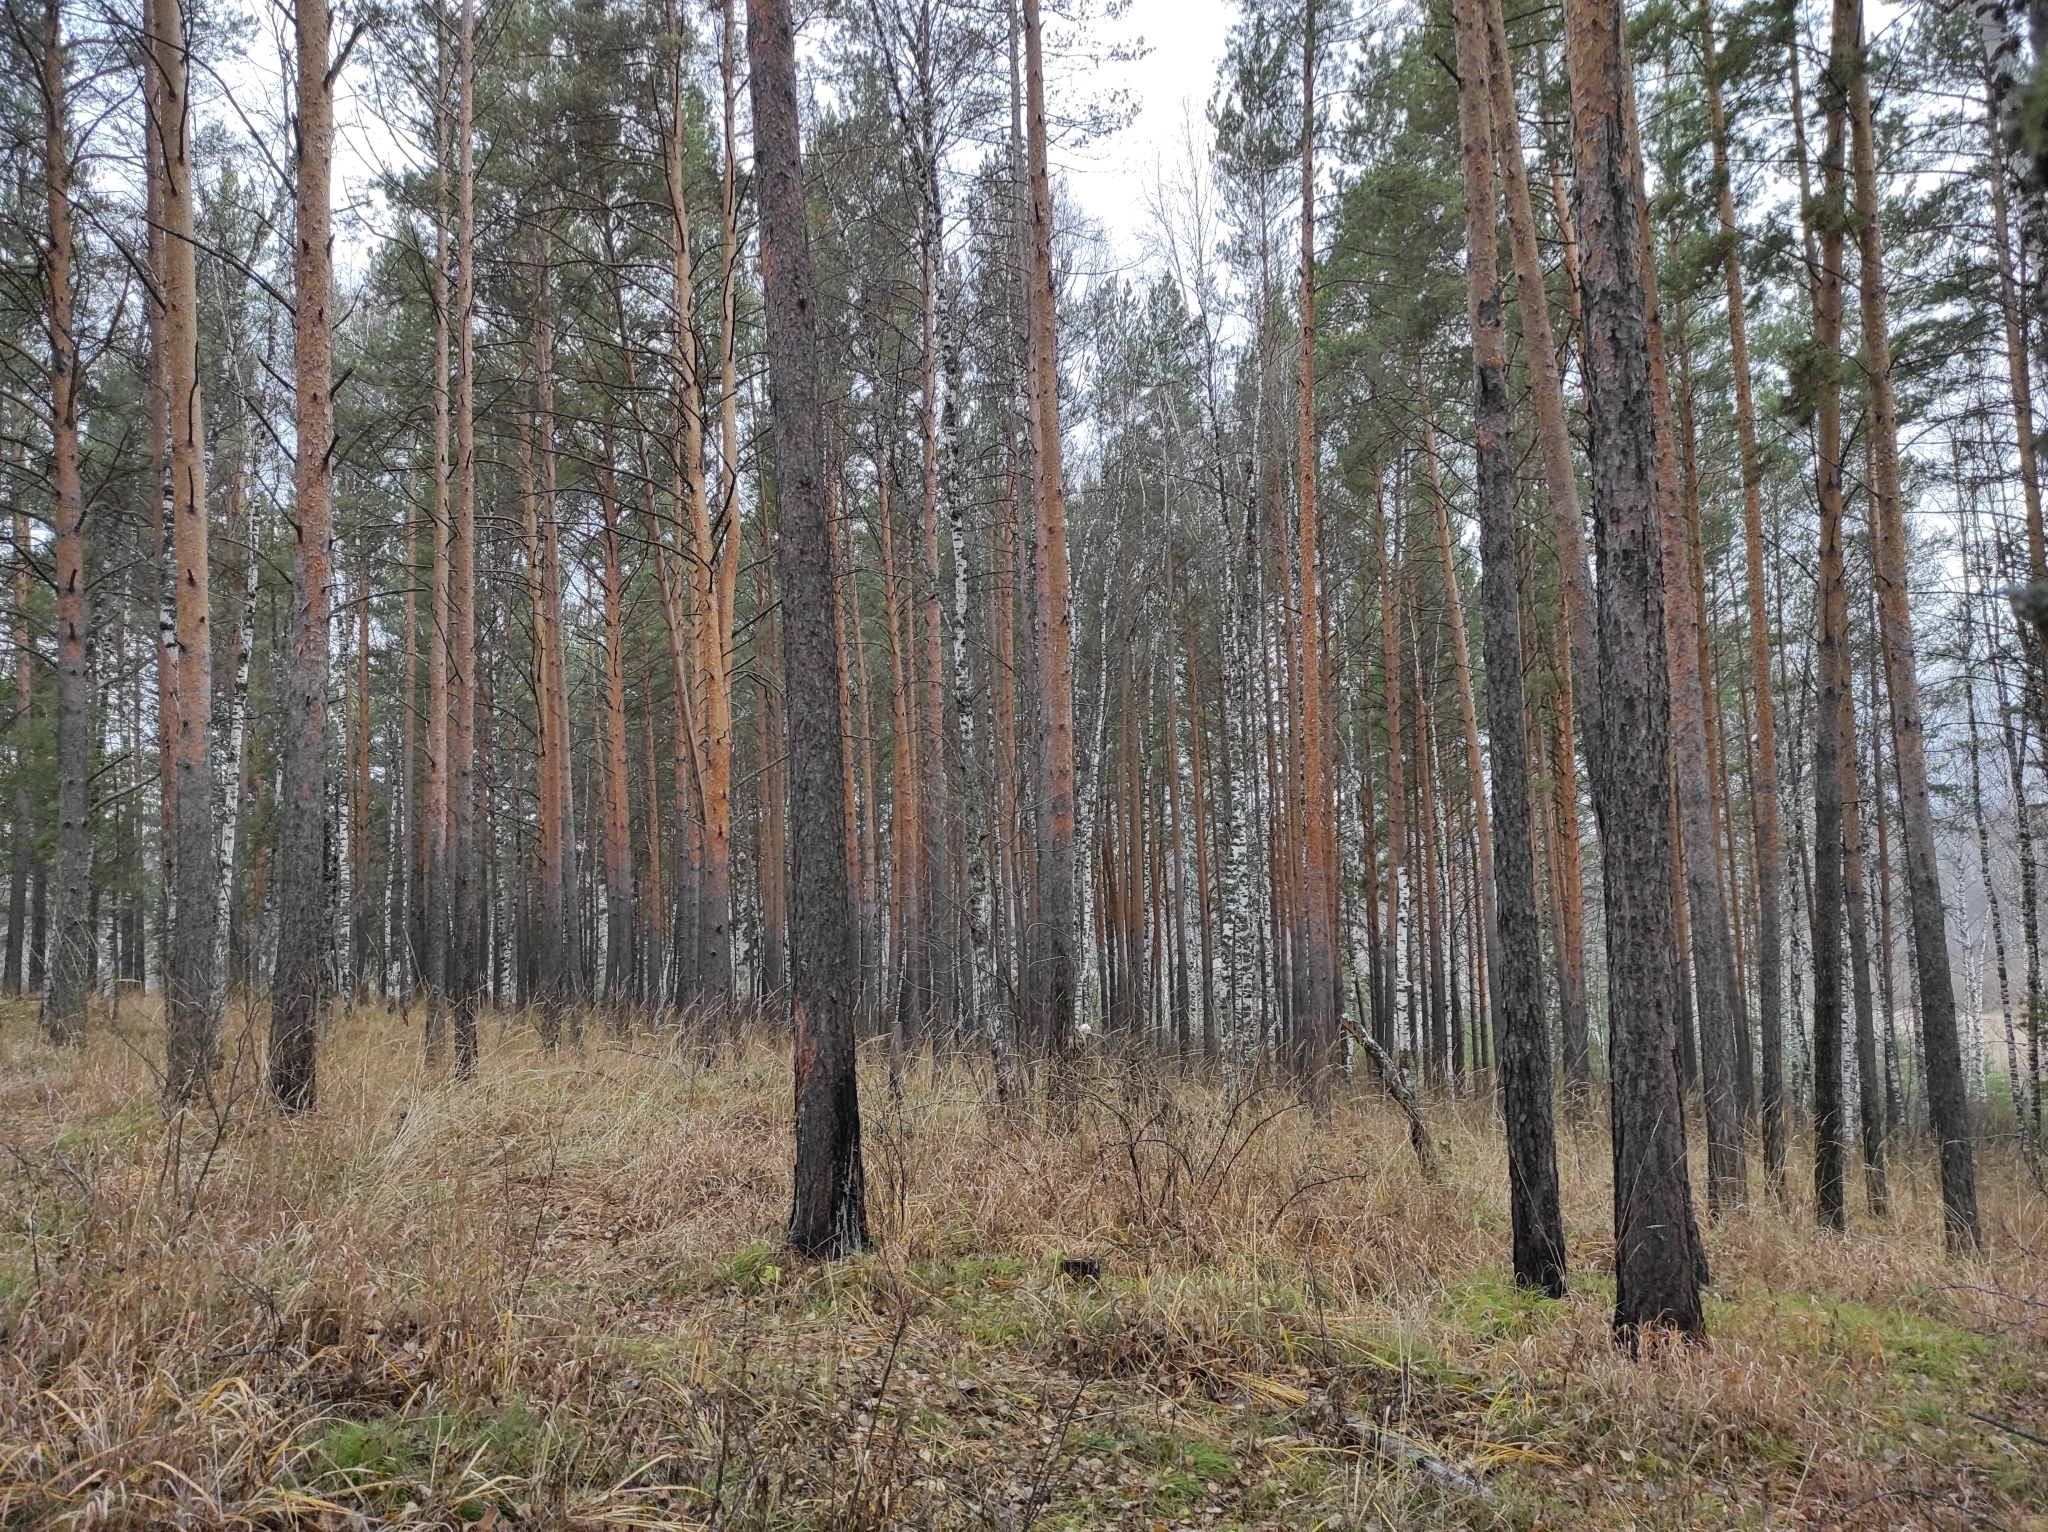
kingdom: Plantae
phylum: Tracheophyta
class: Pinopsida
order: Pinales
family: Pinaceae
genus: Pinus
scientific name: Pinus sylvestris
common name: Scots pine
